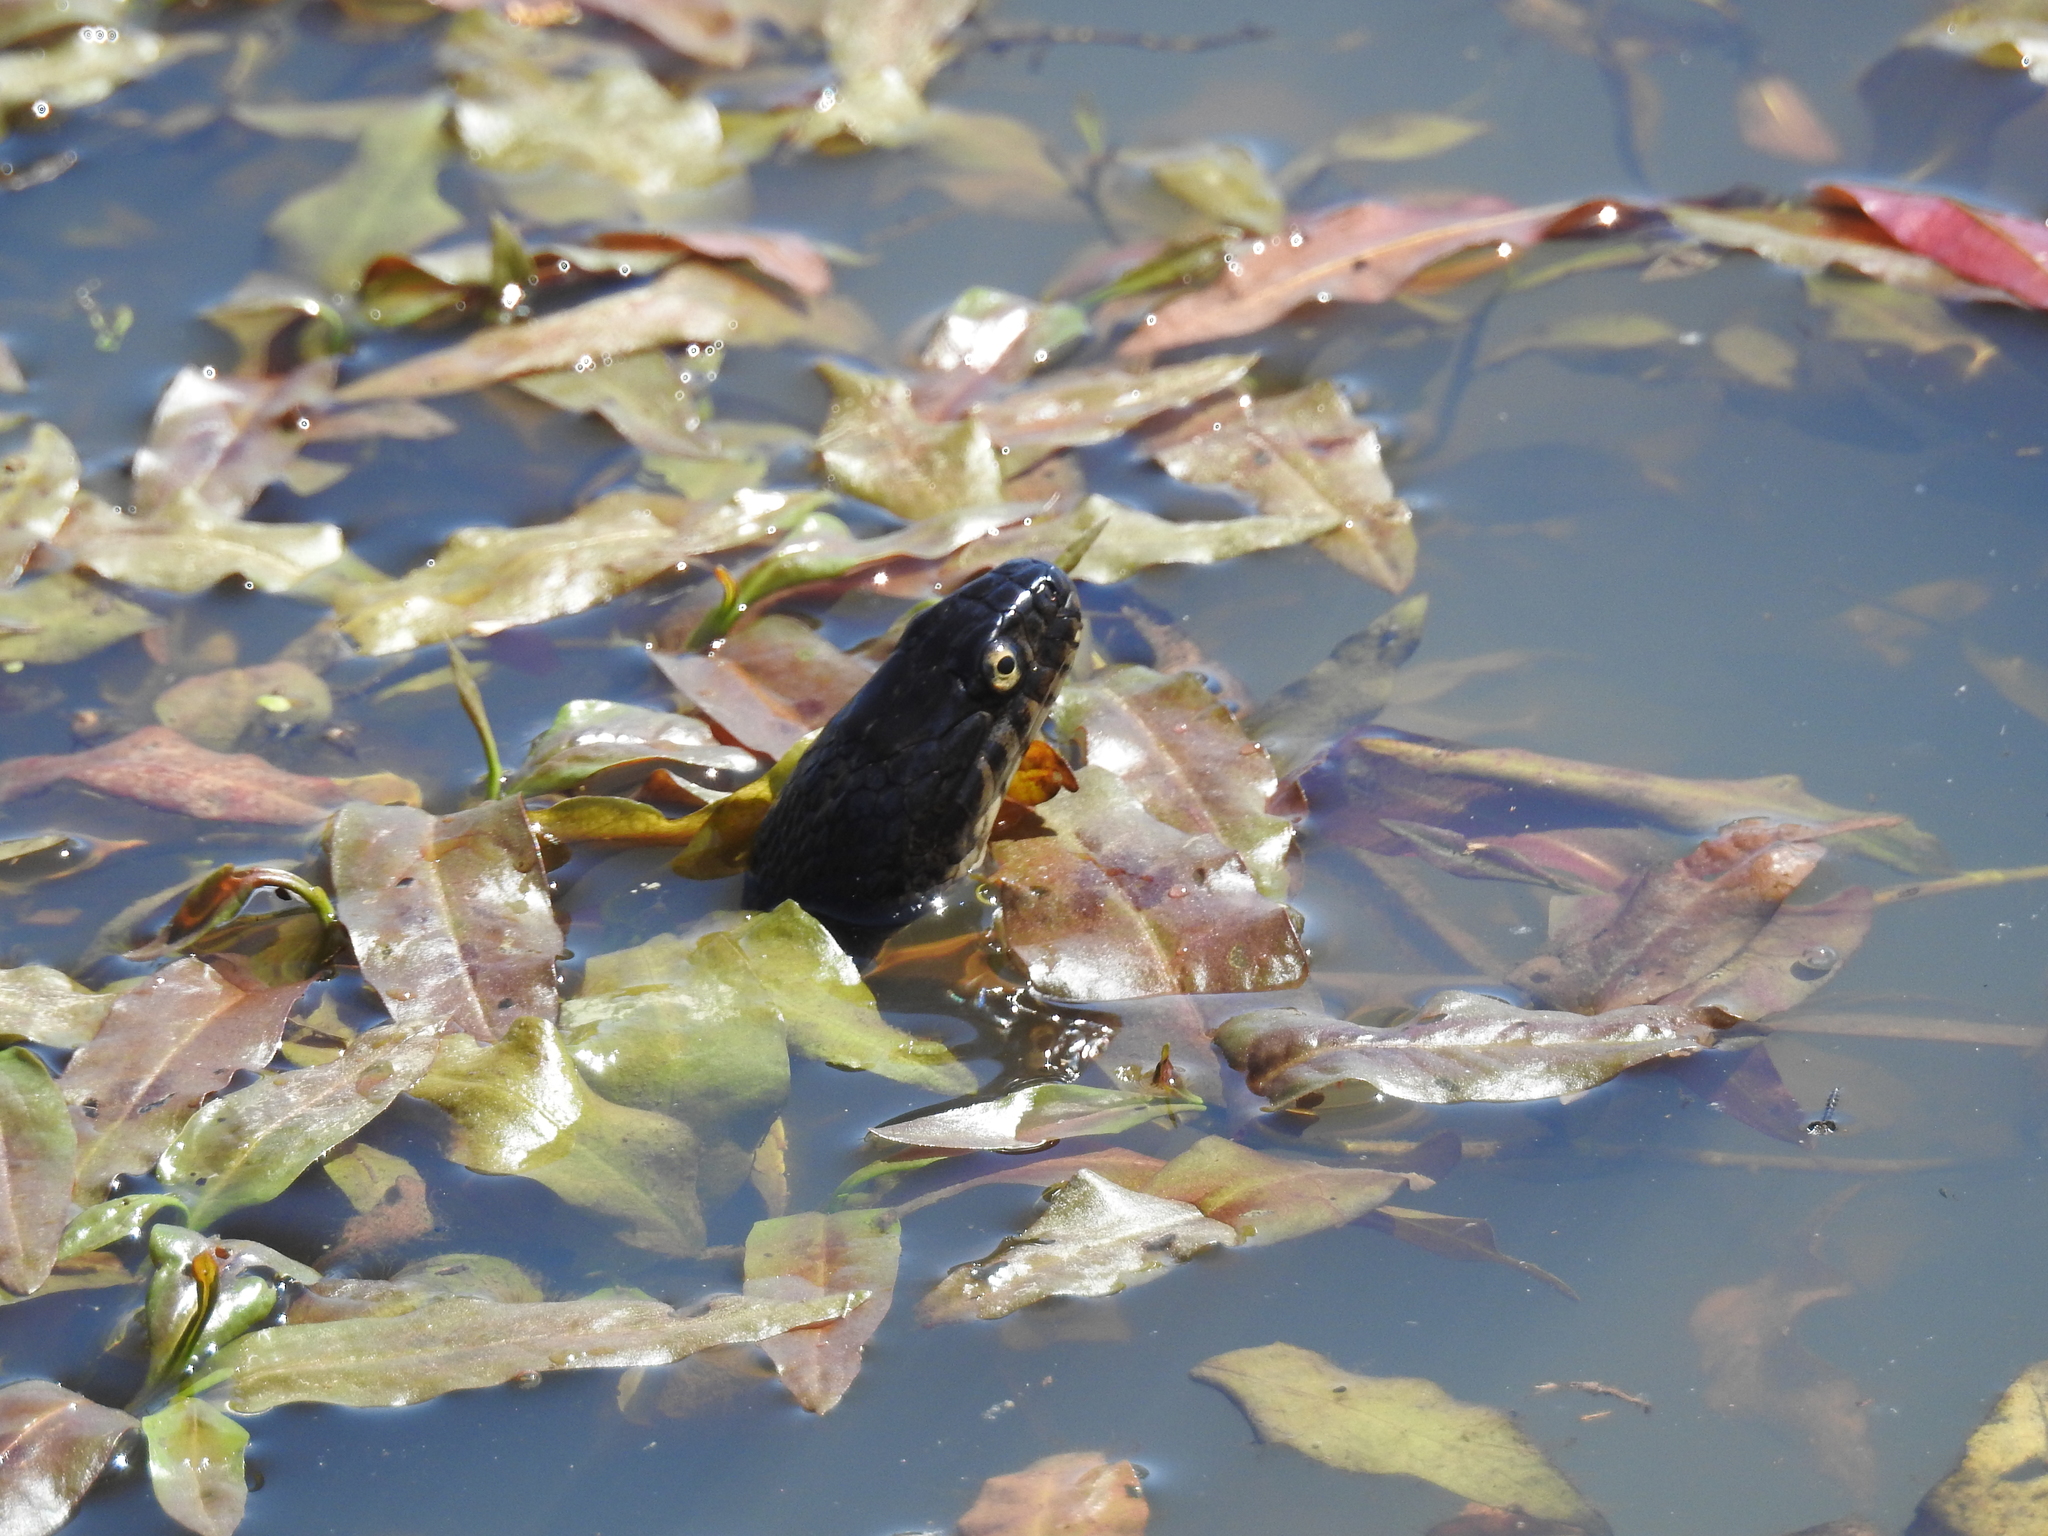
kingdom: Animalia
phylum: Chordata
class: Squamata
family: Colubridae
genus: Nerodia
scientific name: Nerodia sipedon
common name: Northern water snake
